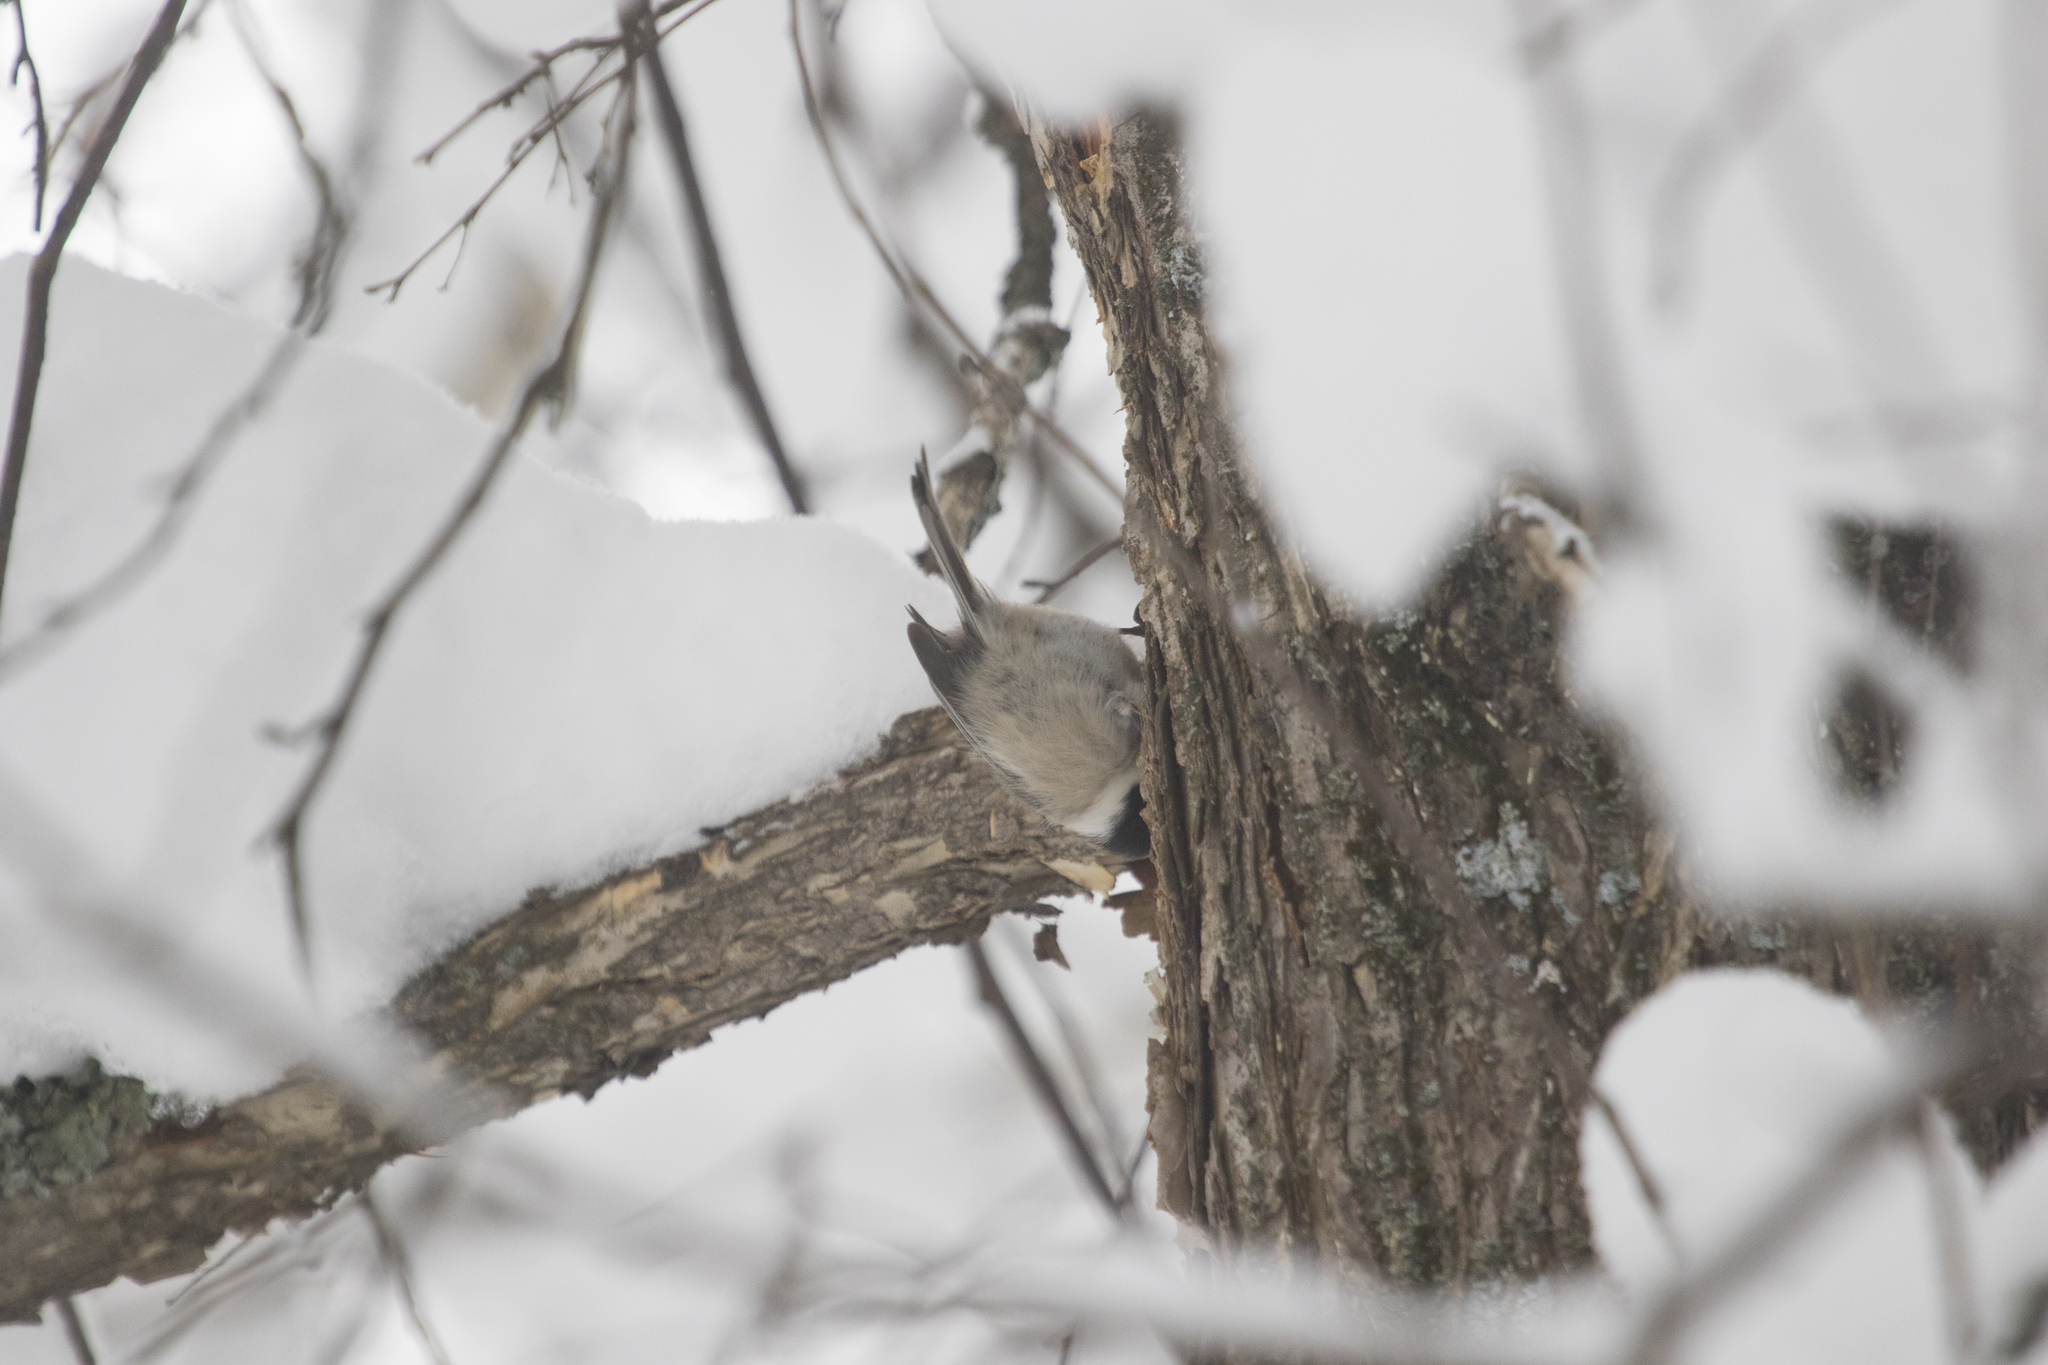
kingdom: Animalia
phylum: Chordata
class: Aves
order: Passeriformes
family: Paridae
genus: Poecile
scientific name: Poecile montanus
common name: Willow tit
